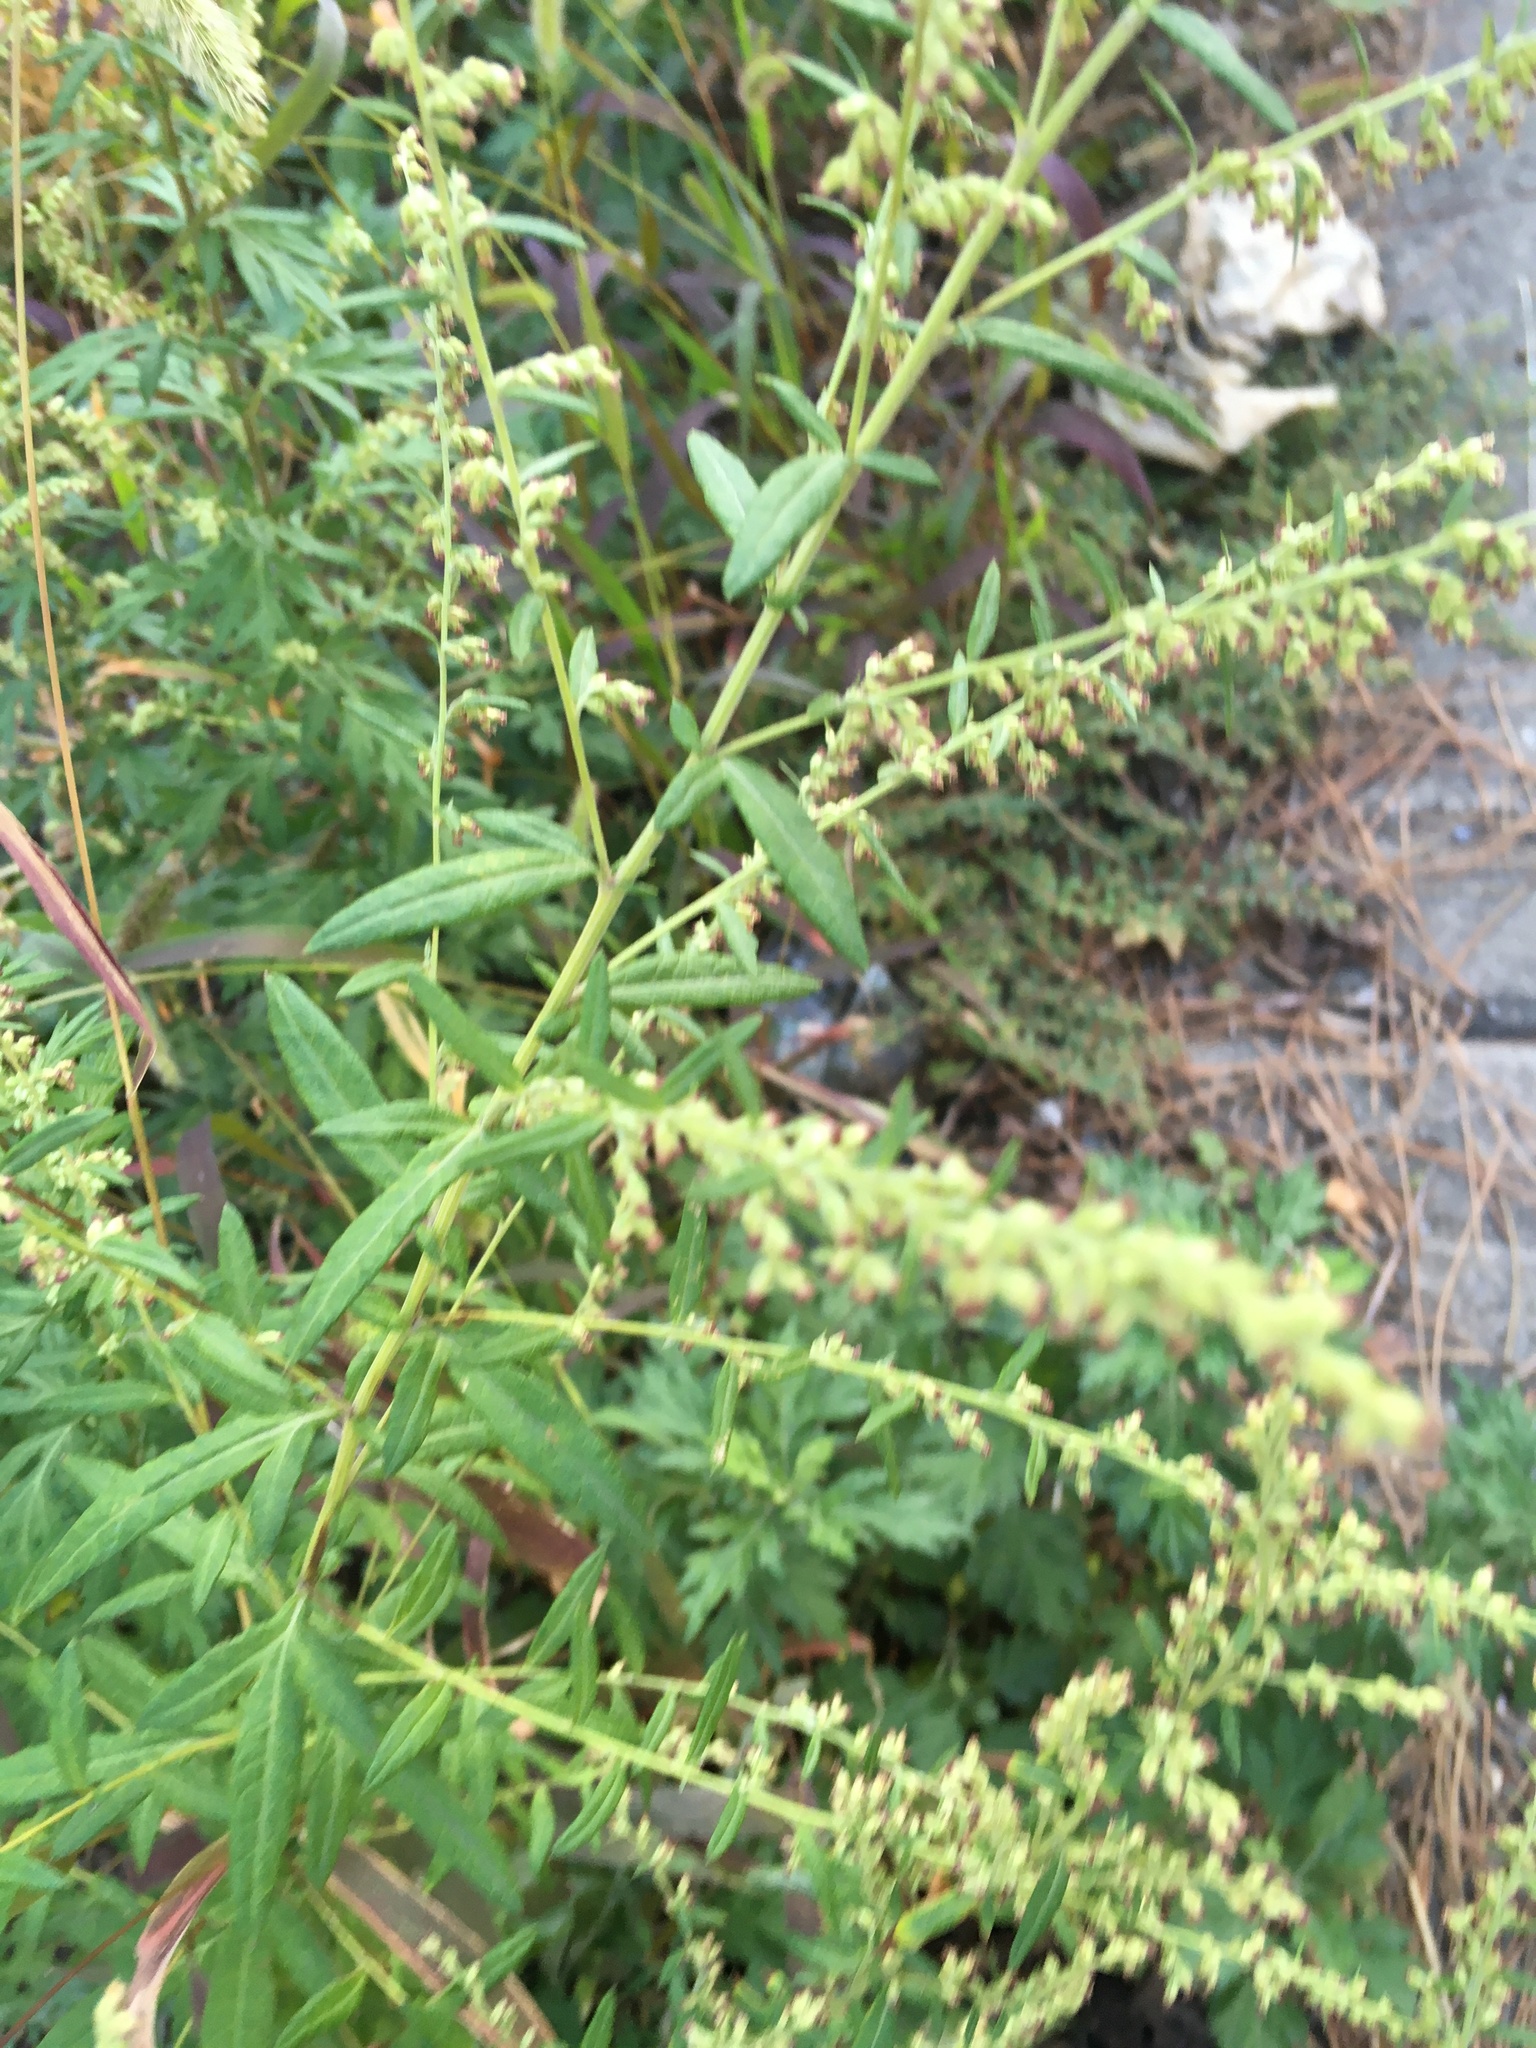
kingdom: Plantae
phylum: Tracheophyta
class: Magnoliopsida
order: Asterales
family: Asteraceae
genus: Artemisia
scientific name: Artemisia vulgaris
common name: Mugwort
